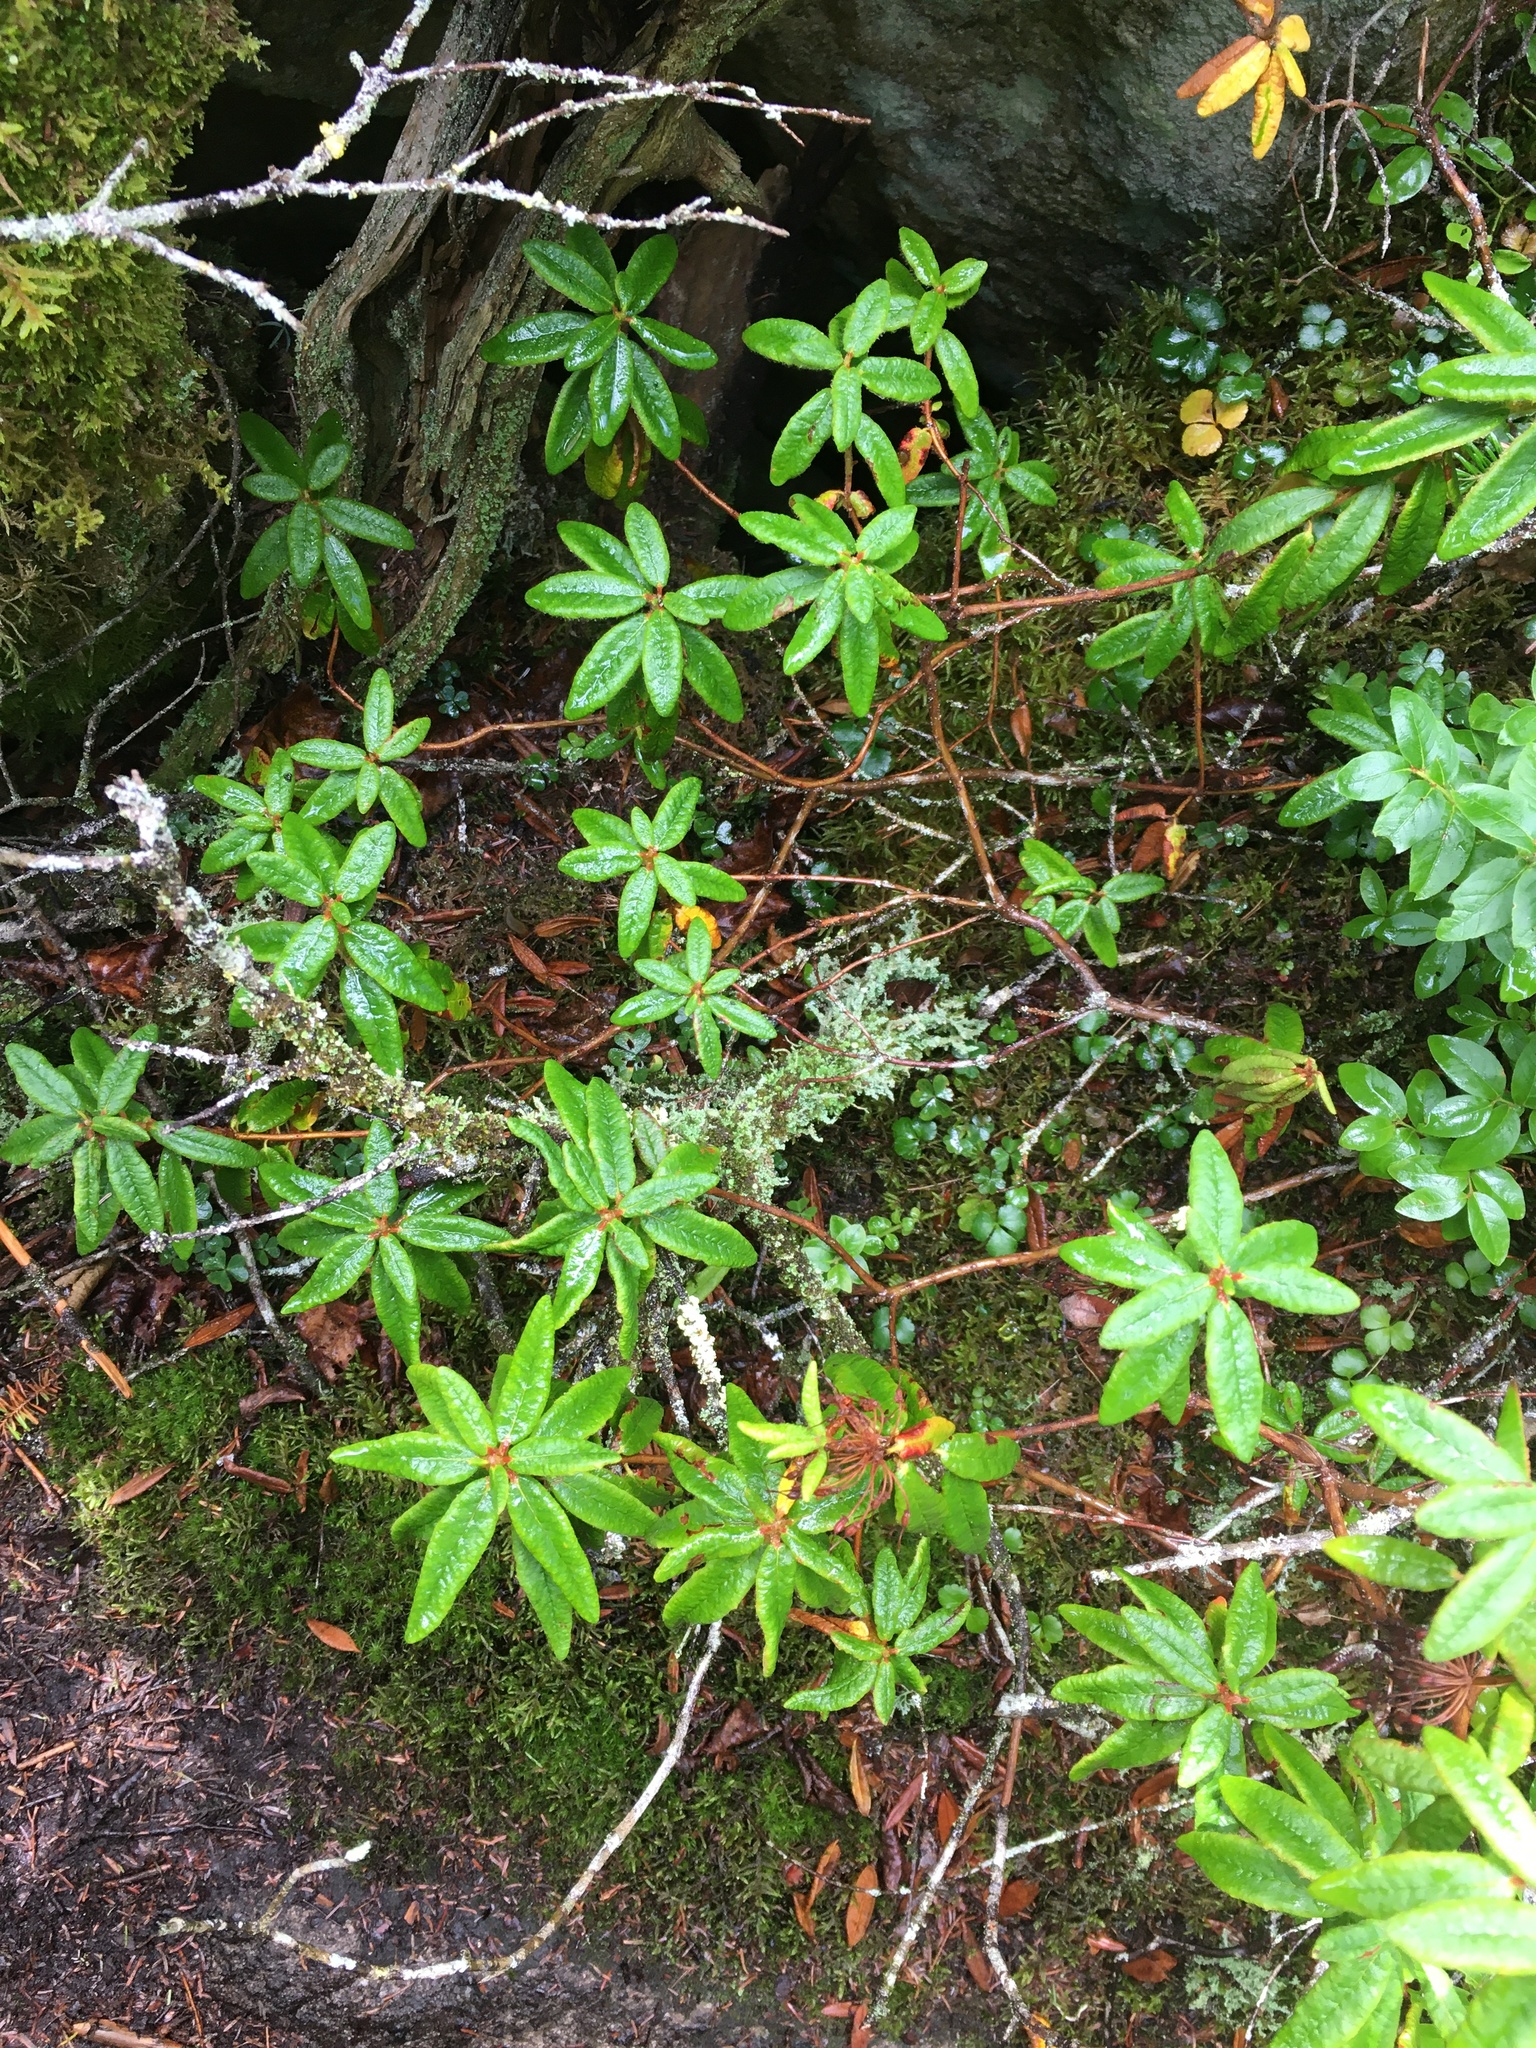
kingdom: Plantae
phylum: Tracheophyta
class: Magnoliopsida
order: Ericales
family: Ericaceae
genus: Rhododendron
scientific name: Rhododendron groenlandicum
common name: Bog labrador tea
